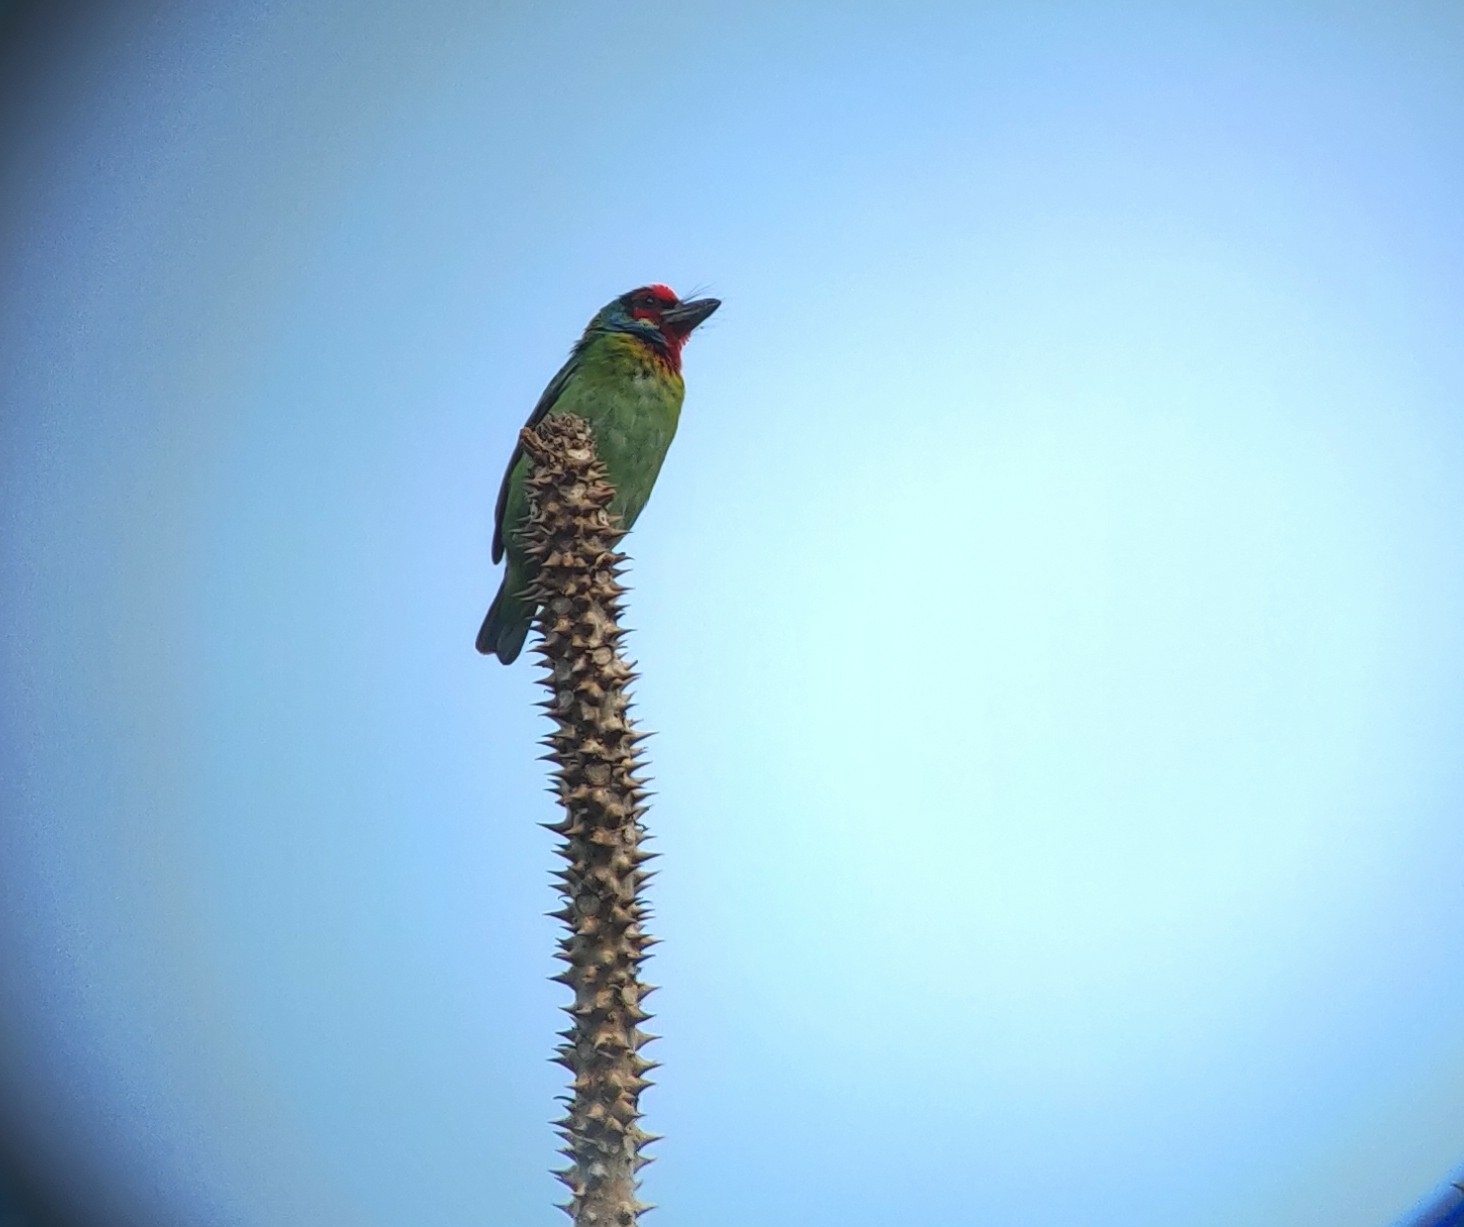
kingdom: Animalia
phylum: Chordata
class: Aves
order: Piciformes
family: Megalaimidae
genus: Psilopogon
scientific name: Psilopogon malabaricus
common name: Malabar barbet
